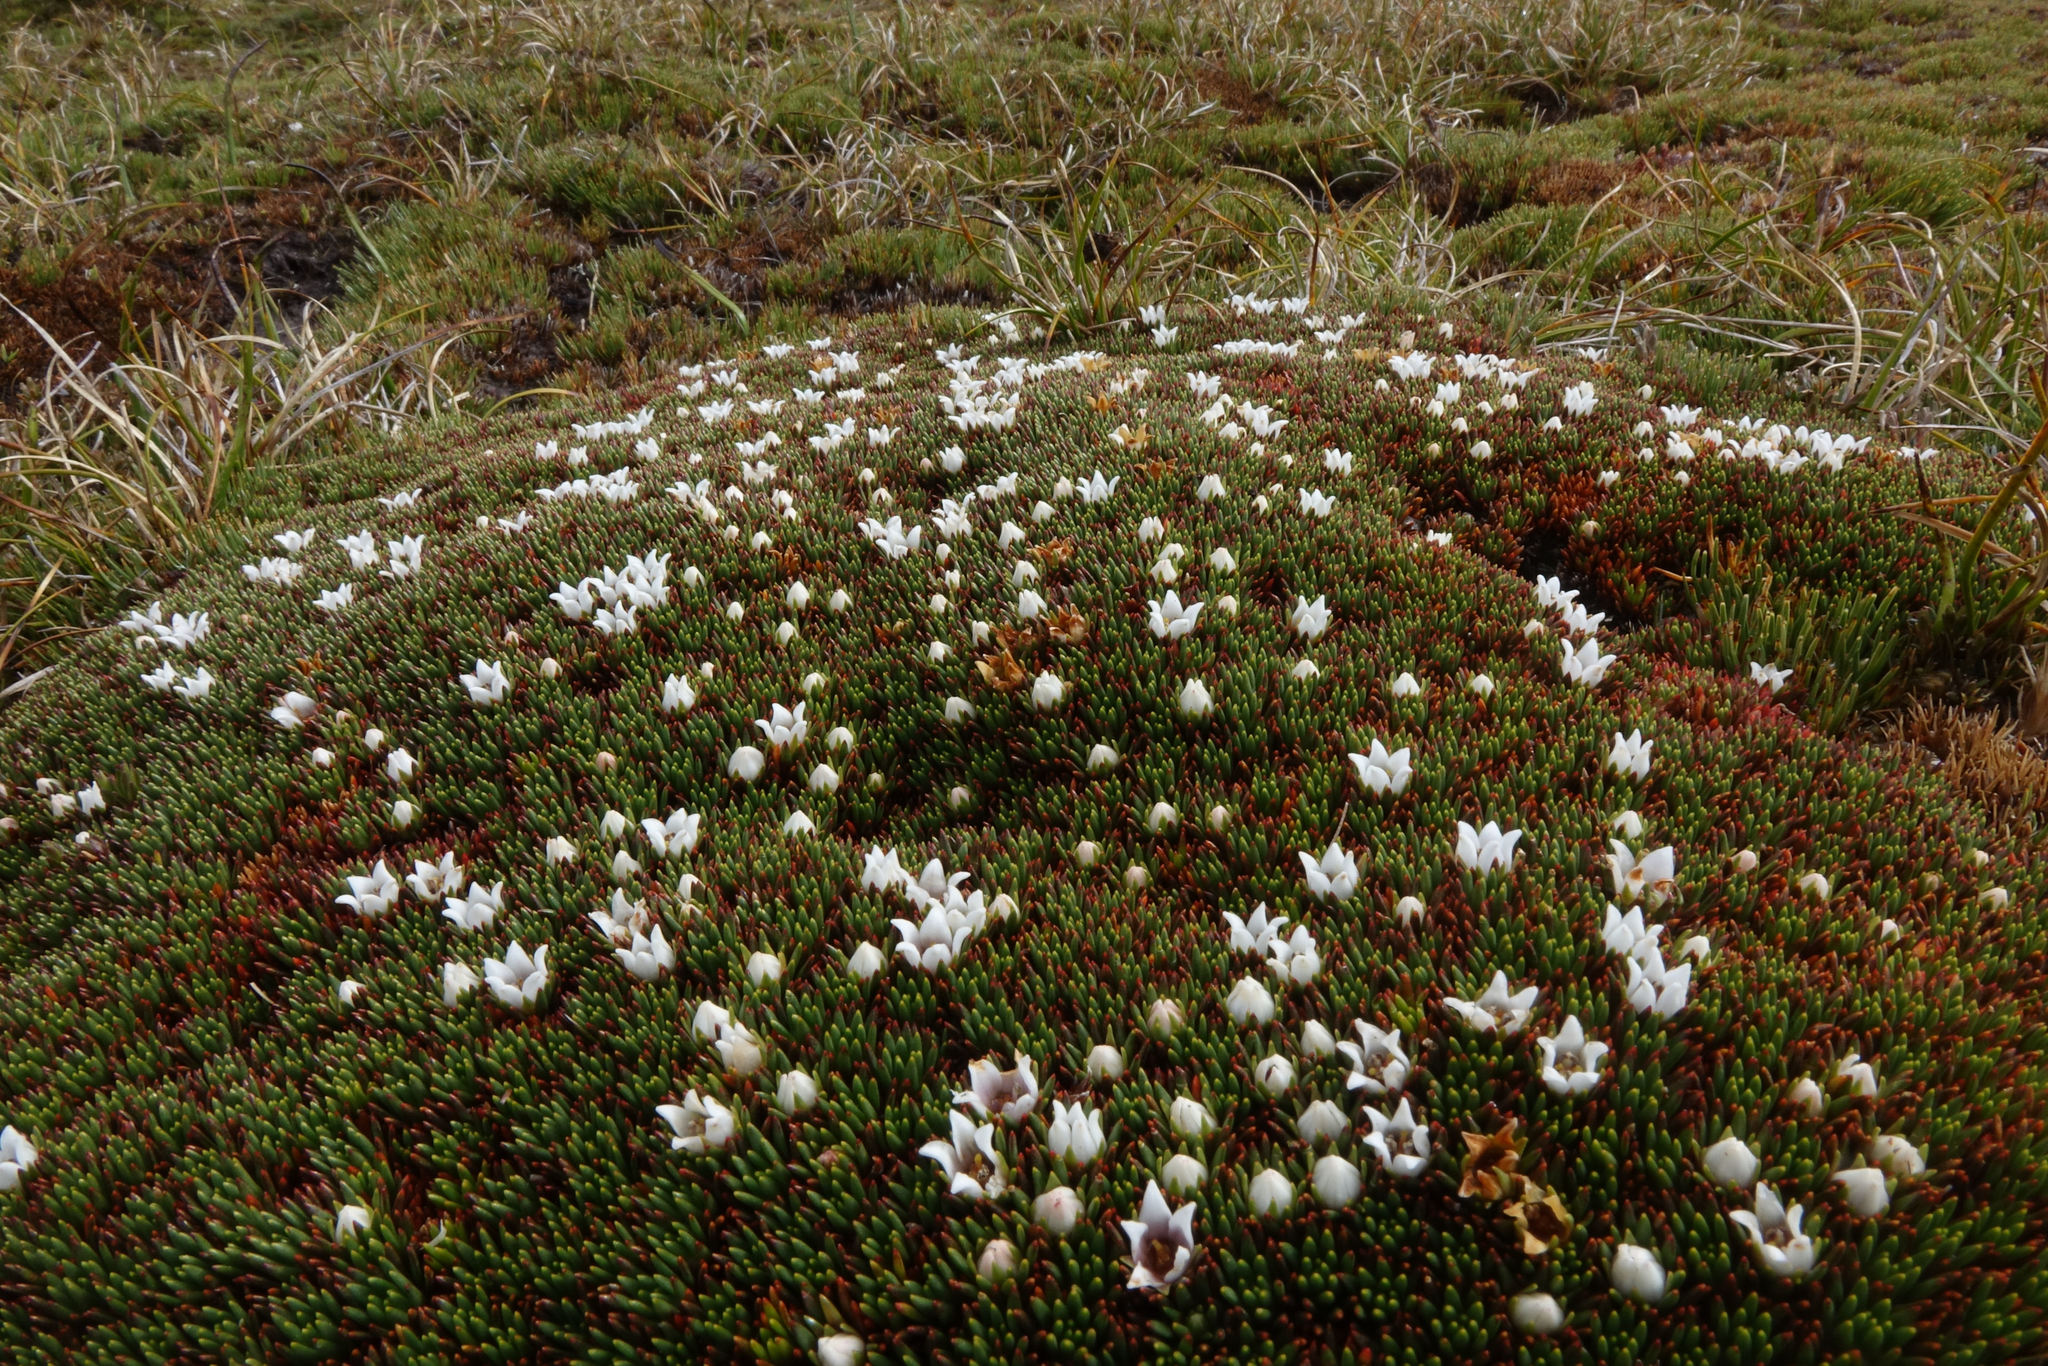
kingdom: Plantae
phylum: Tracheophyta
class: Magnoliopsida
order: Asterales
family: Stylidiaceae
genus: Donatia
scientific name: Donatia novae-zelandiae
